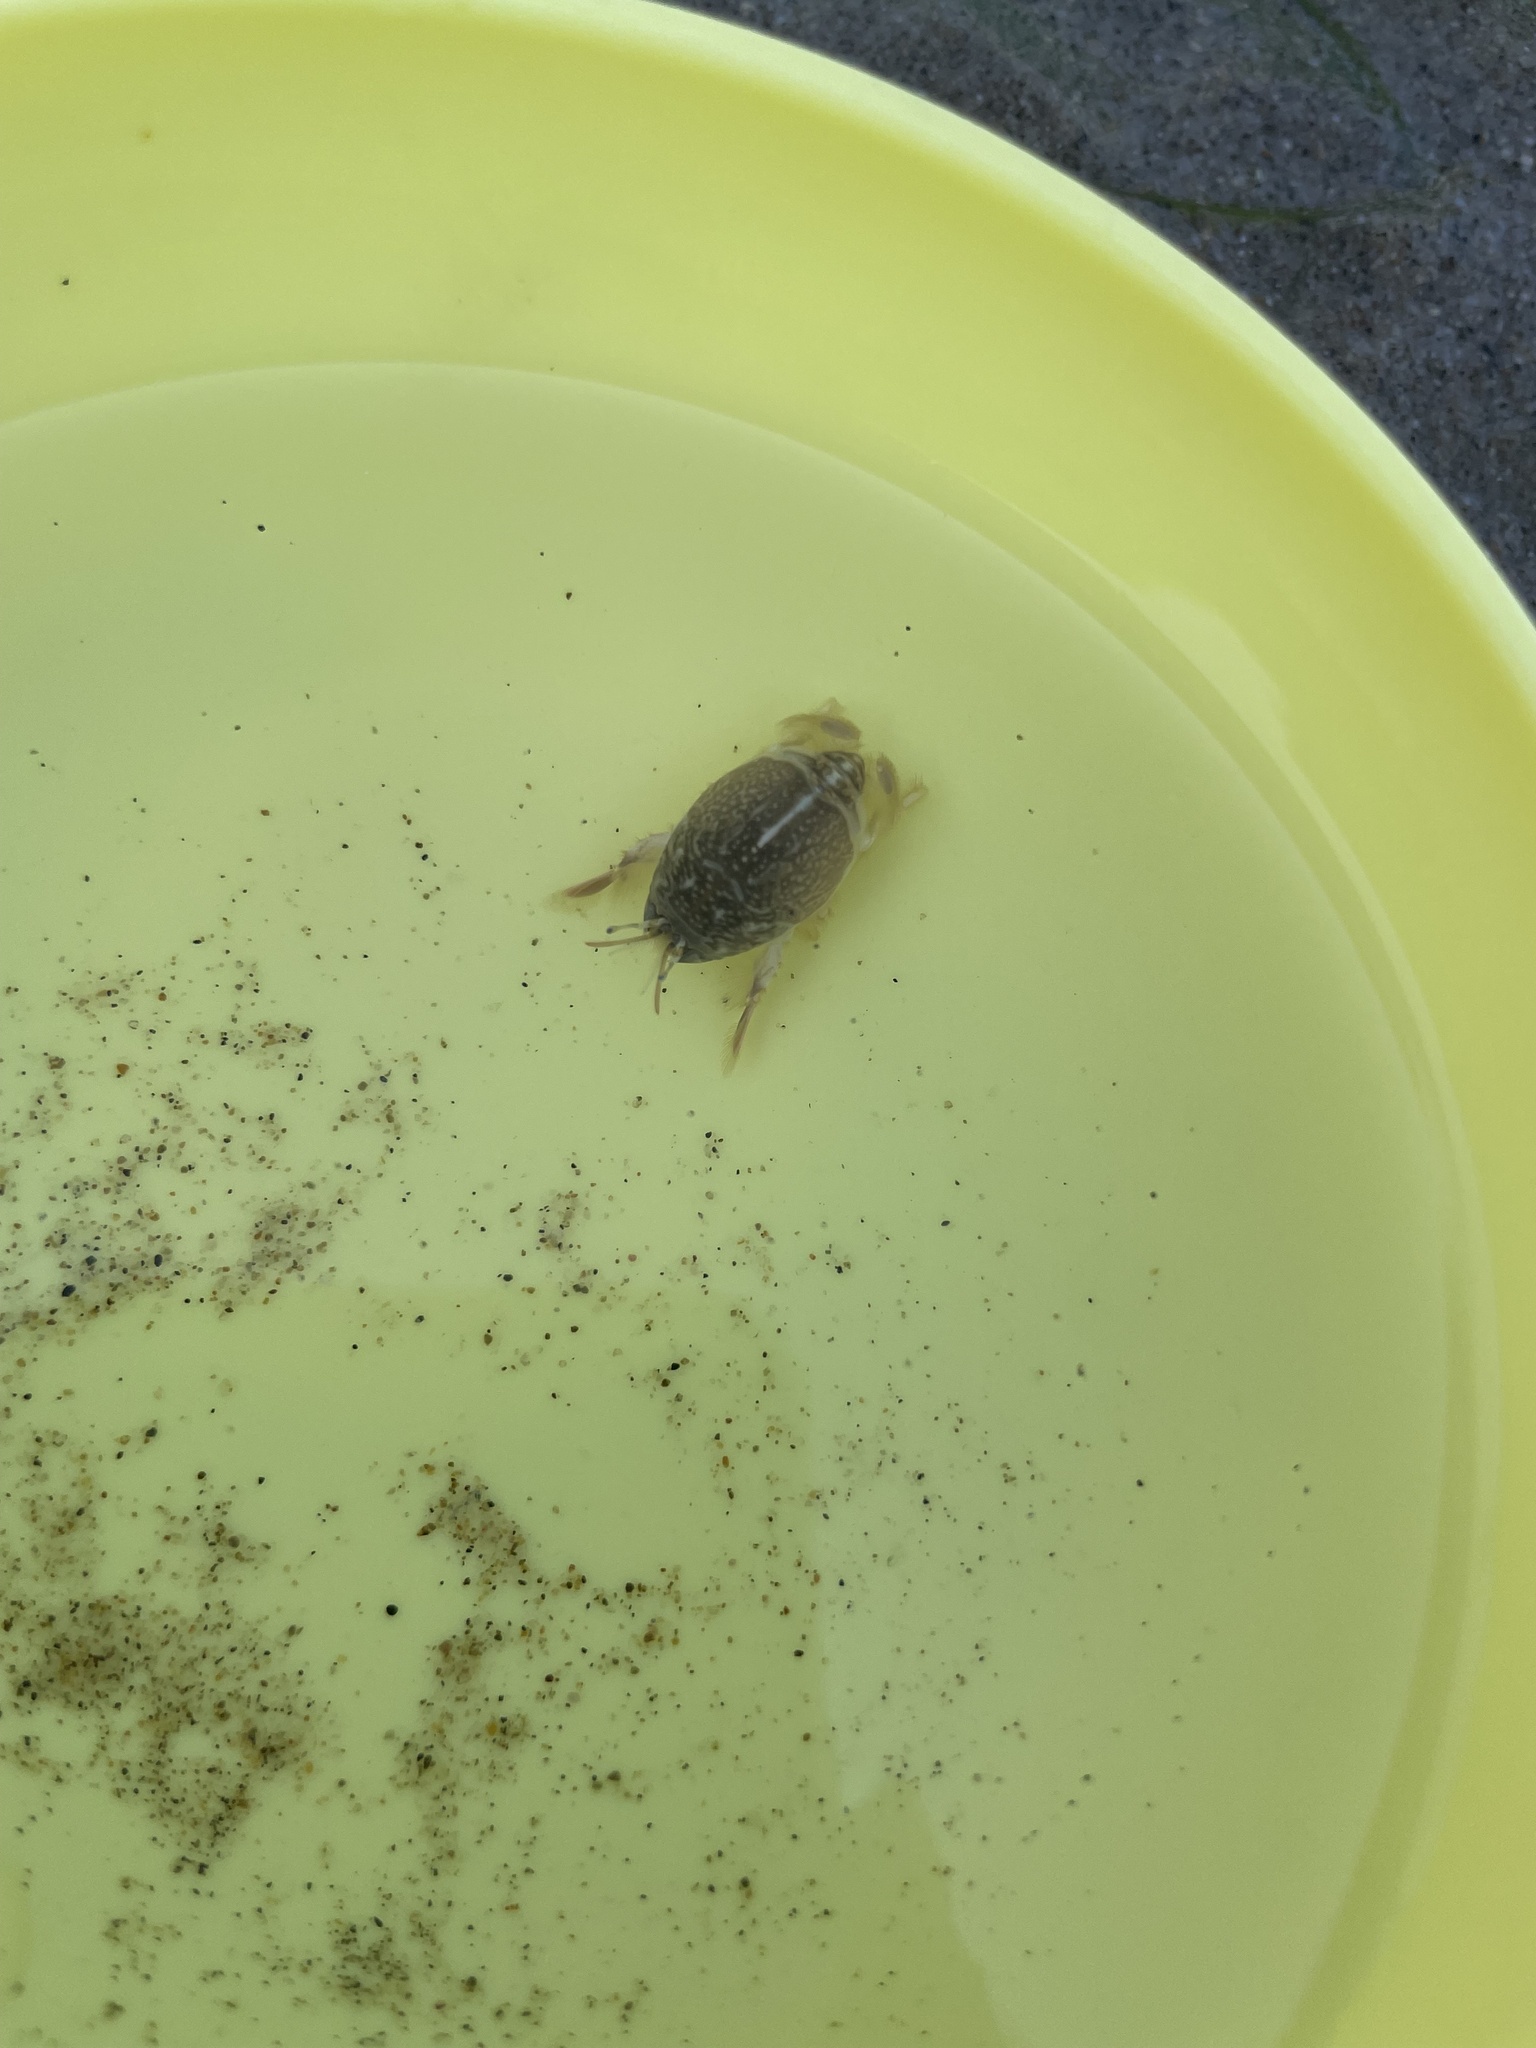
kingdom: Animalia
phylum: Arthropoda
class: Malacostraca
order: Decapoda
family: Hippidae
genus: Emerita
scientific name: Emerita analoga
